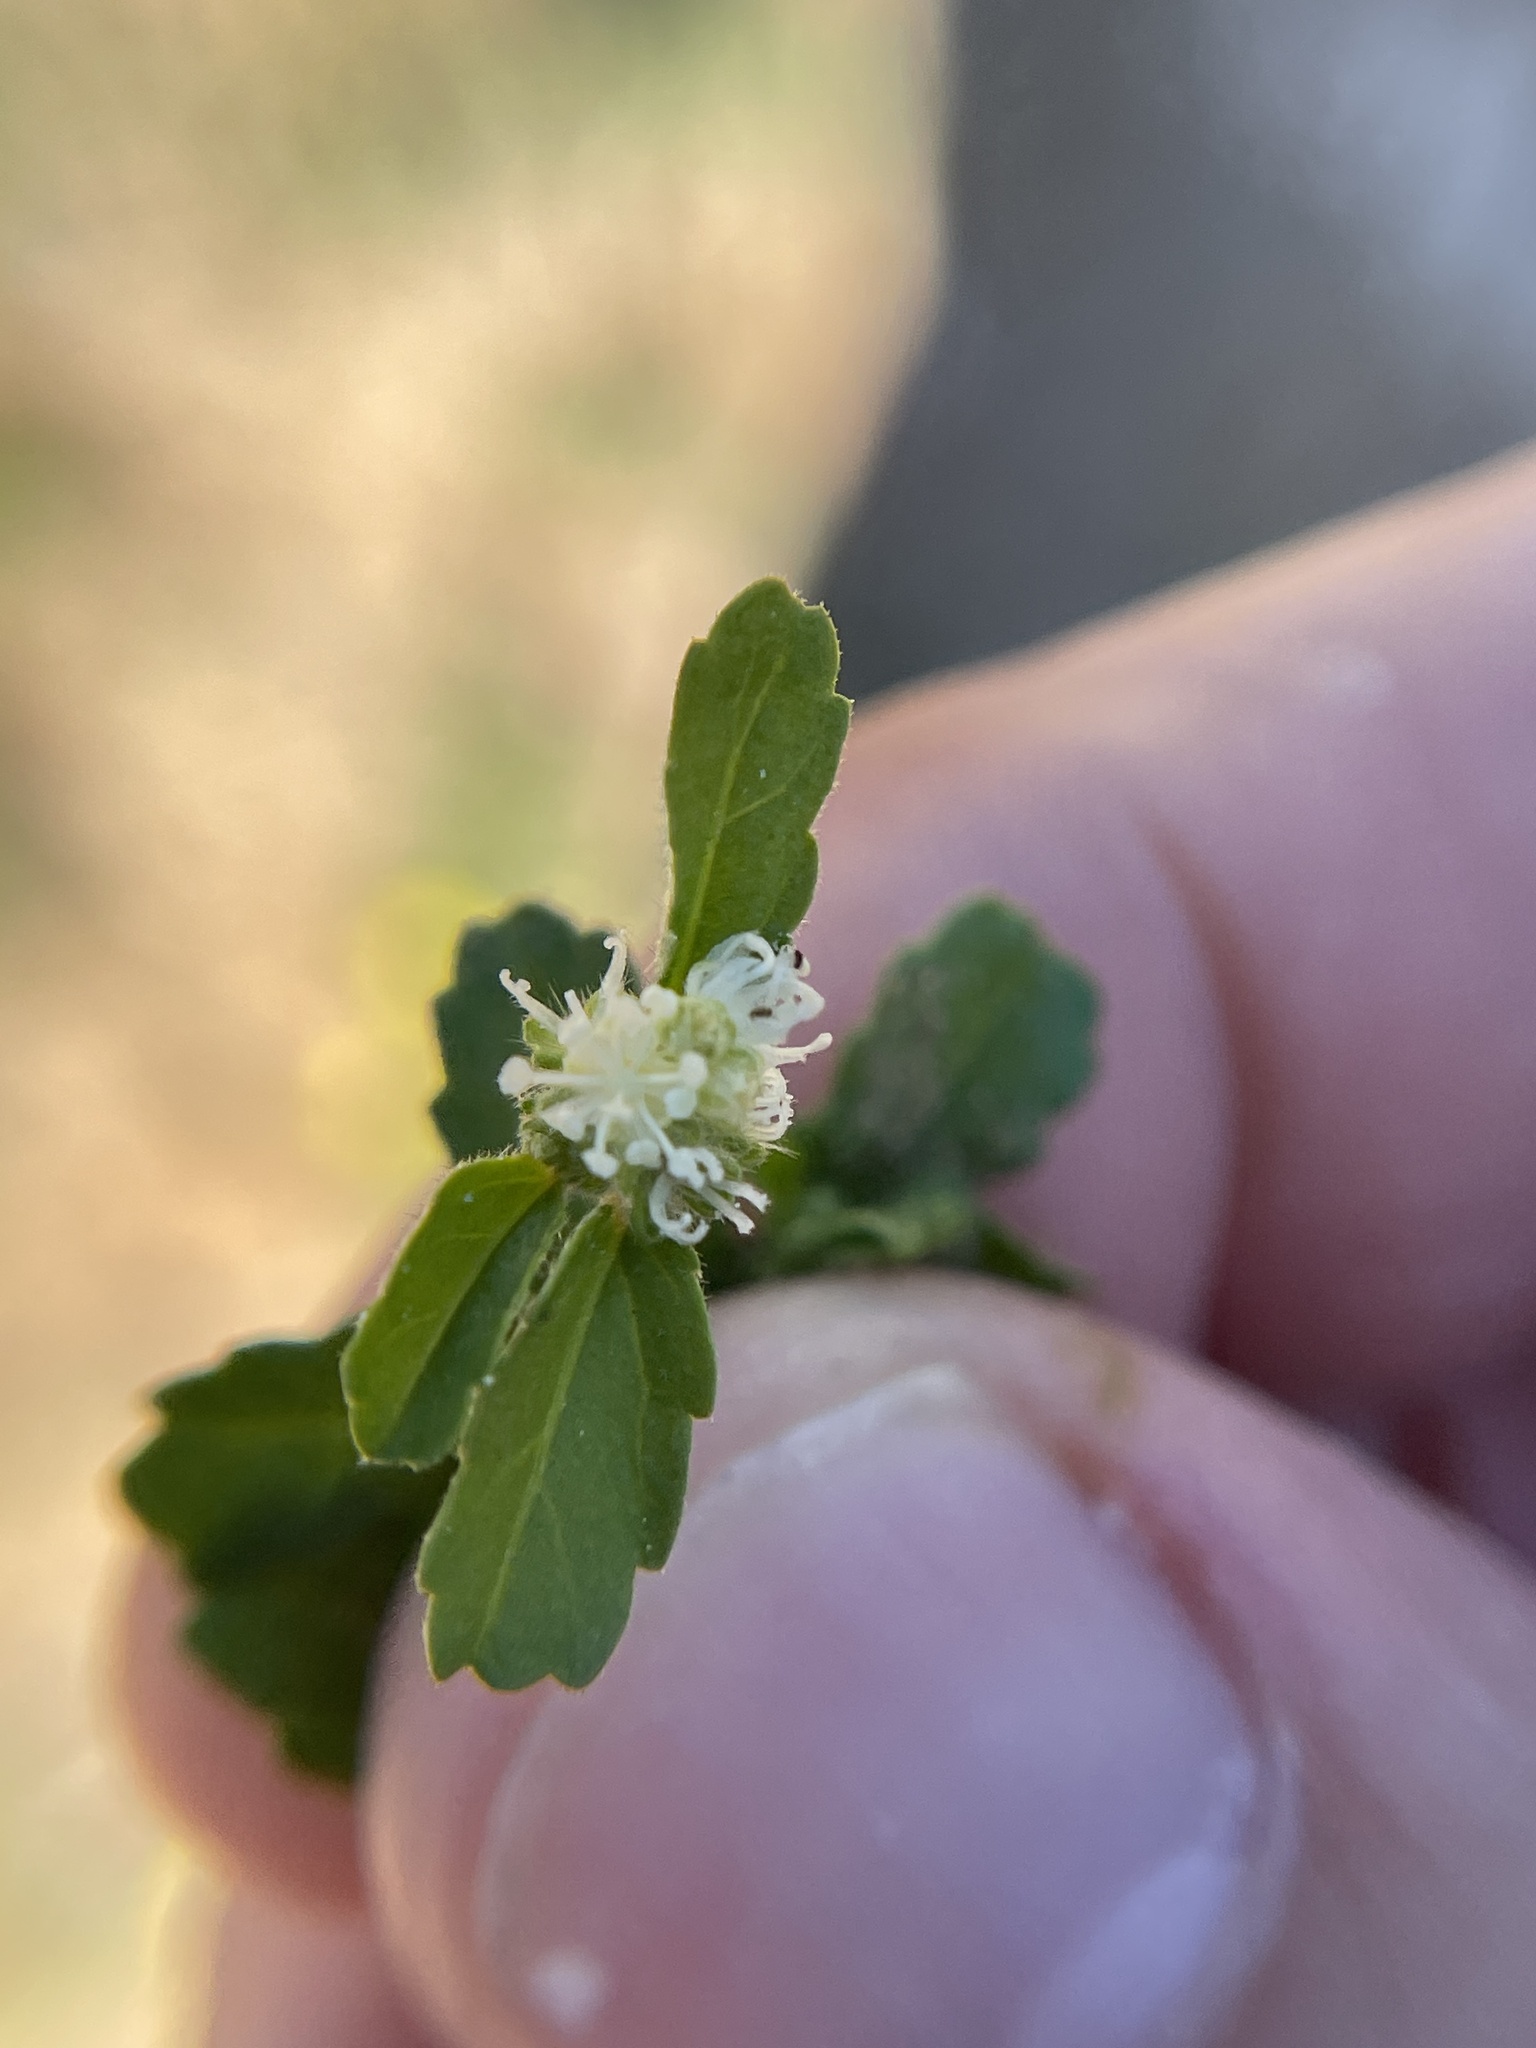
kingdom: Plantae
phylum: Tracheophyta
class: Magnoliopsida
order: Malpighiales
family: Euphorbiaceae
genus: Croton
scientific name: Croton glandulosus
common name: Tropic croton
